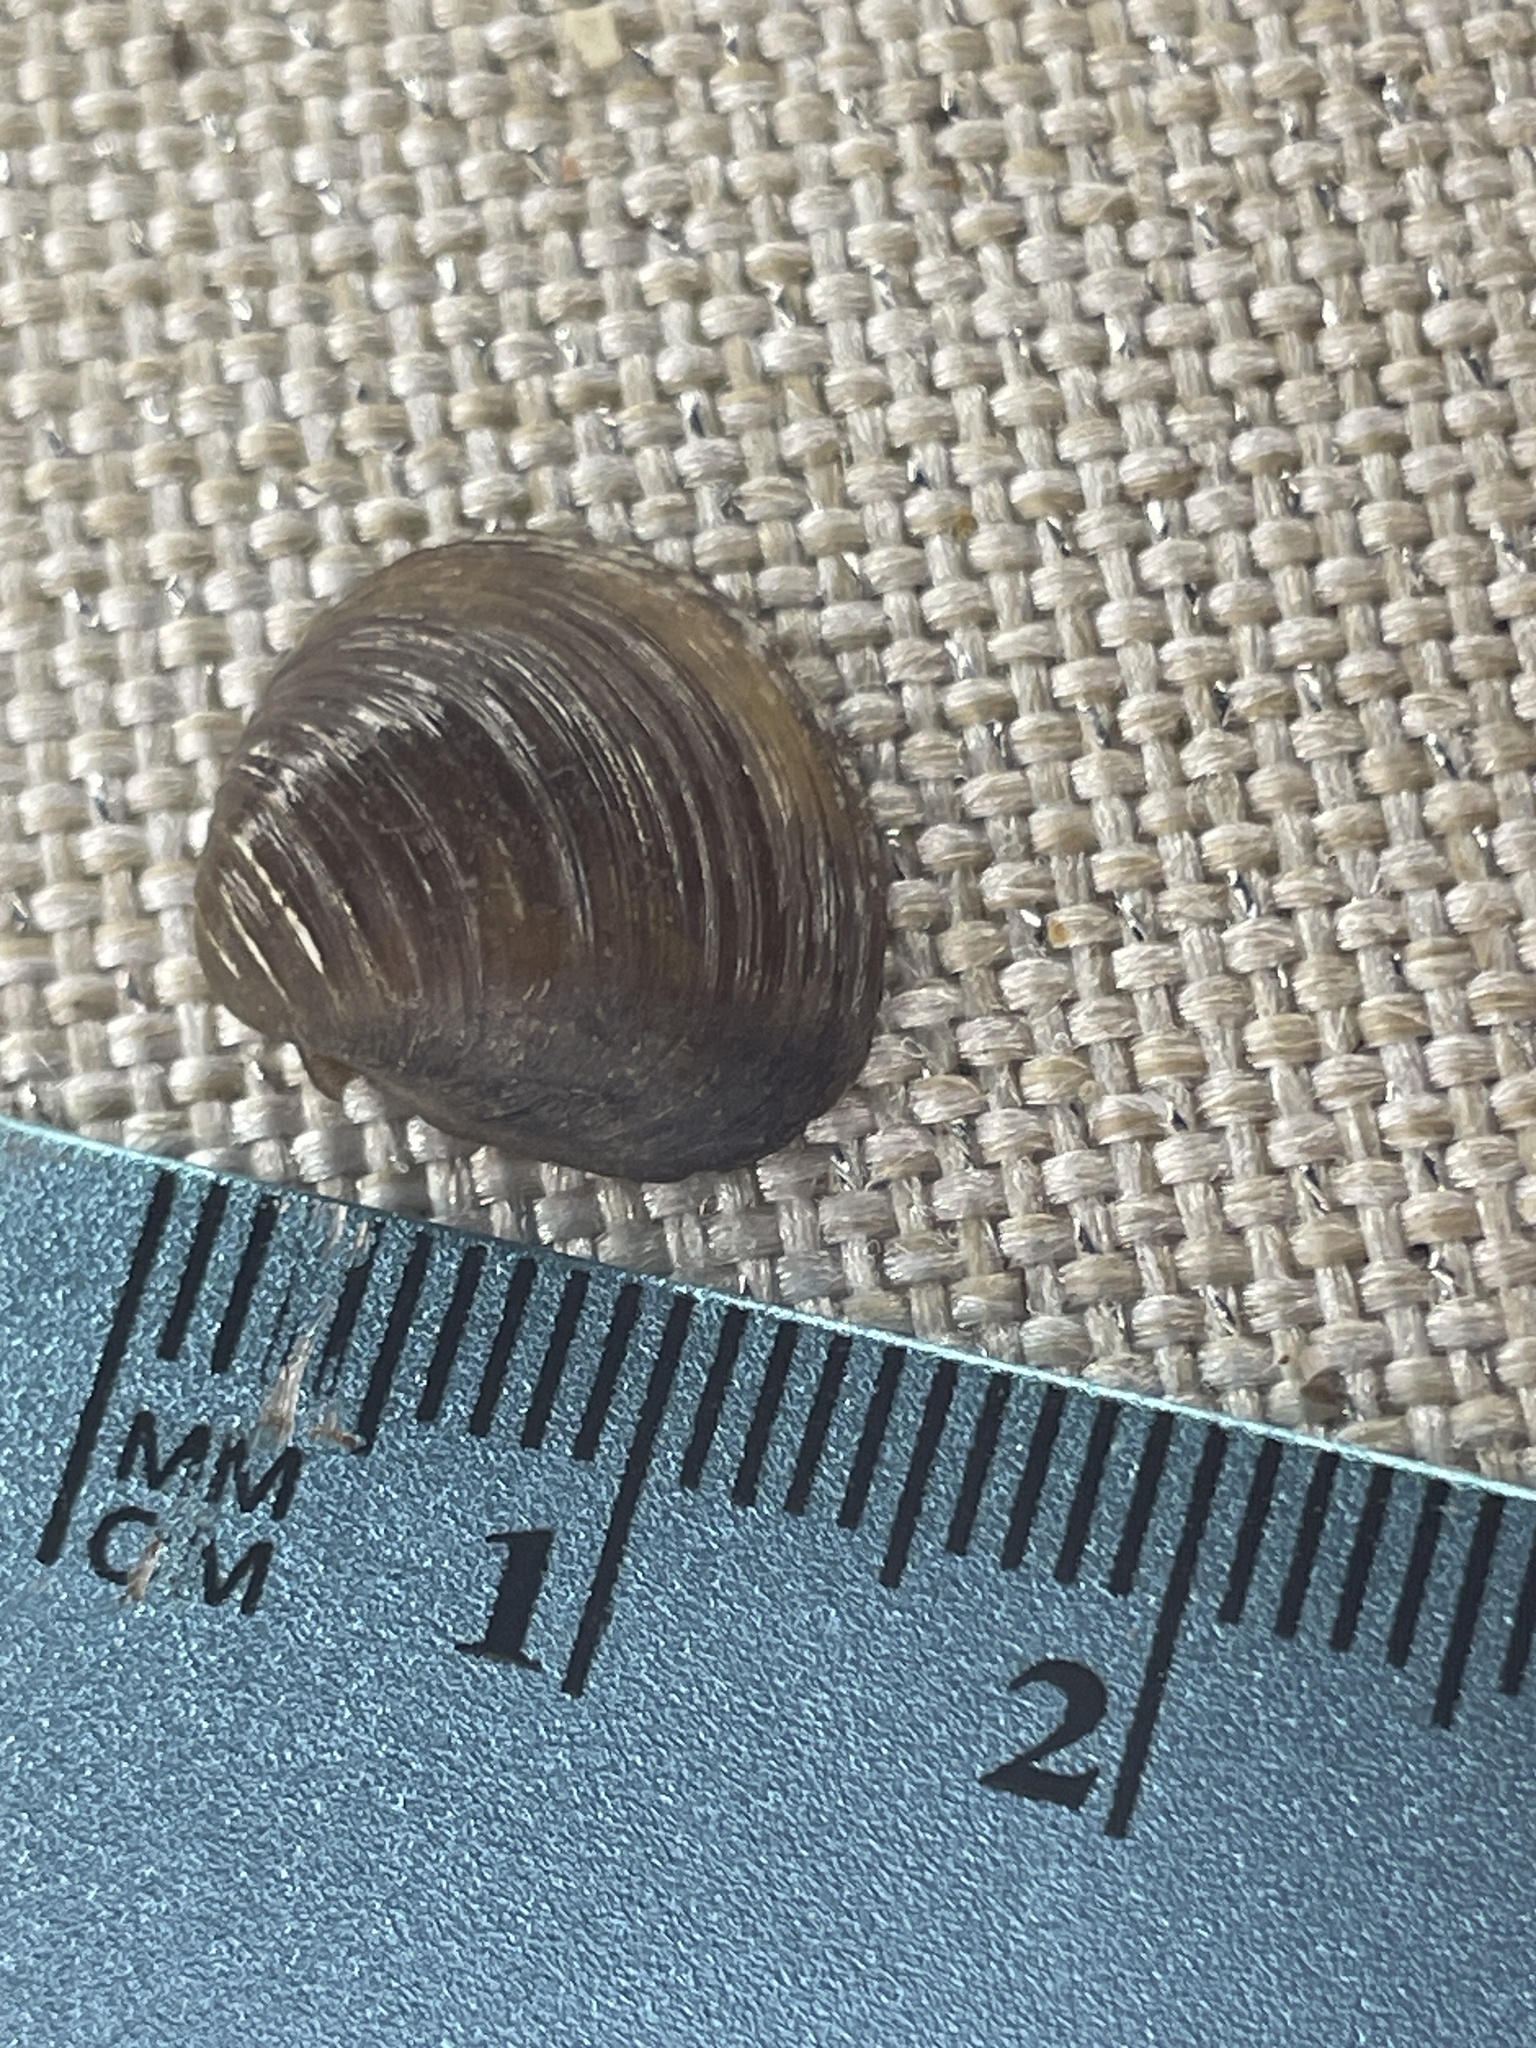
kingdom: Animalia
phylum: Mollusca
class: Bivalvia
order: Venerida
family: Cyrenidae
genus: Corbicula
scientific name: Corbicula fluminea
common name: Asian clam
